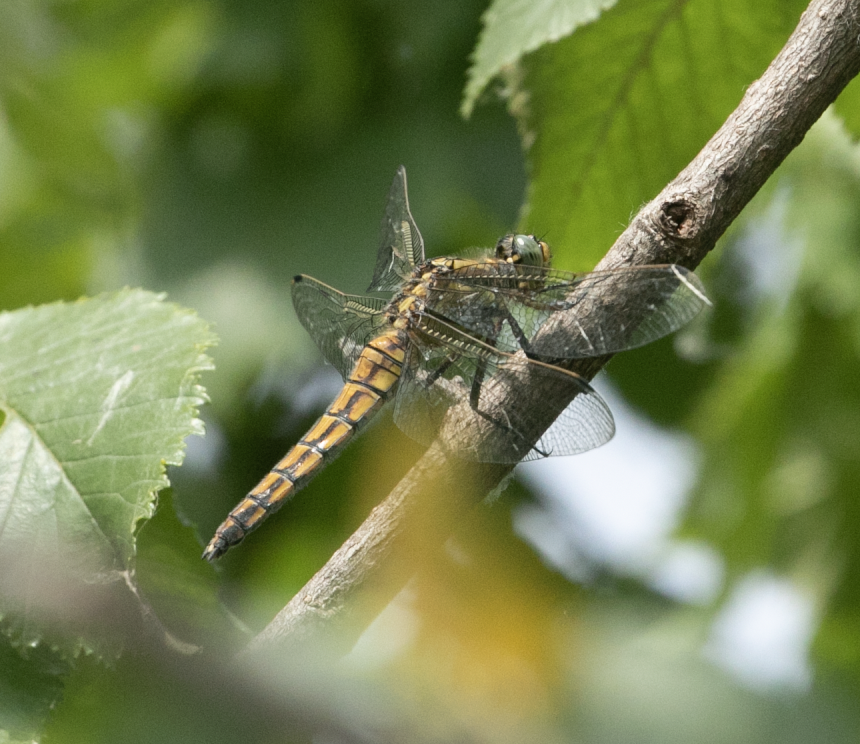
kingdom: Animalia
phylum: Arthropoda
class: Insecta
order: Odonata
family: Libellulidae
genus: Orthetrum
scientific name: Orthetrum cancellatum
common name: Black-tailed skimmer
